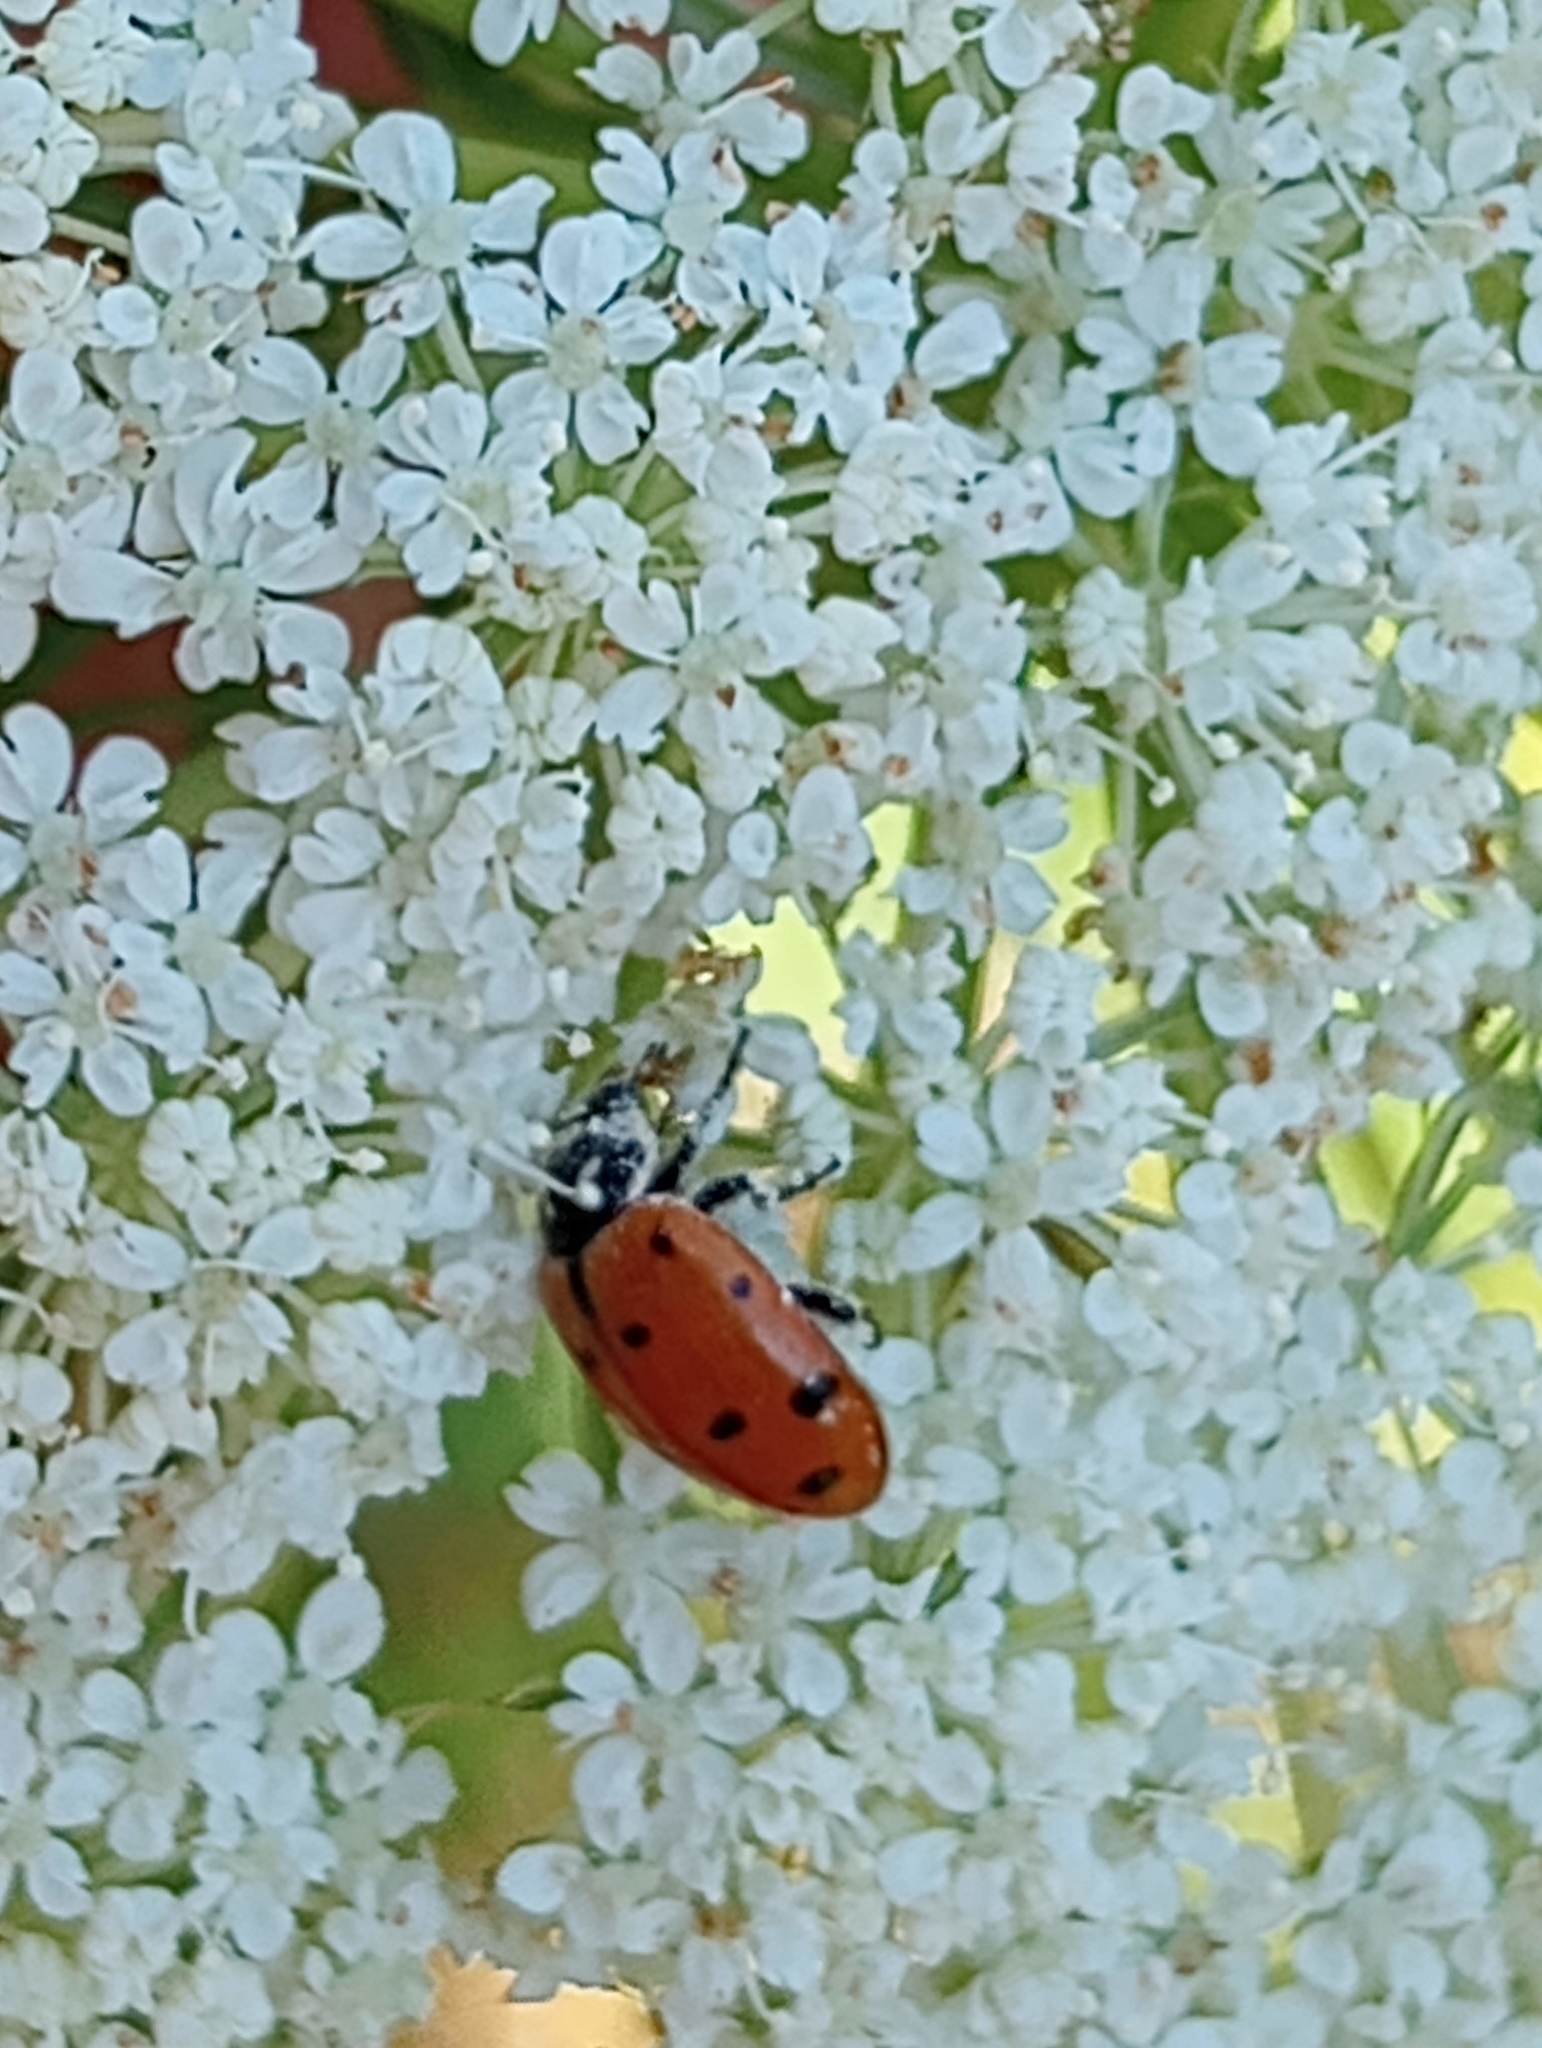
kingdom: Animalia
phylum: Arthropoda
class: Insecta
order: Coleoptera
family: Coccinellidae
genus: Hippodamia
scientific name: Hippodamia convergens
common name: Convergent lady beetle
